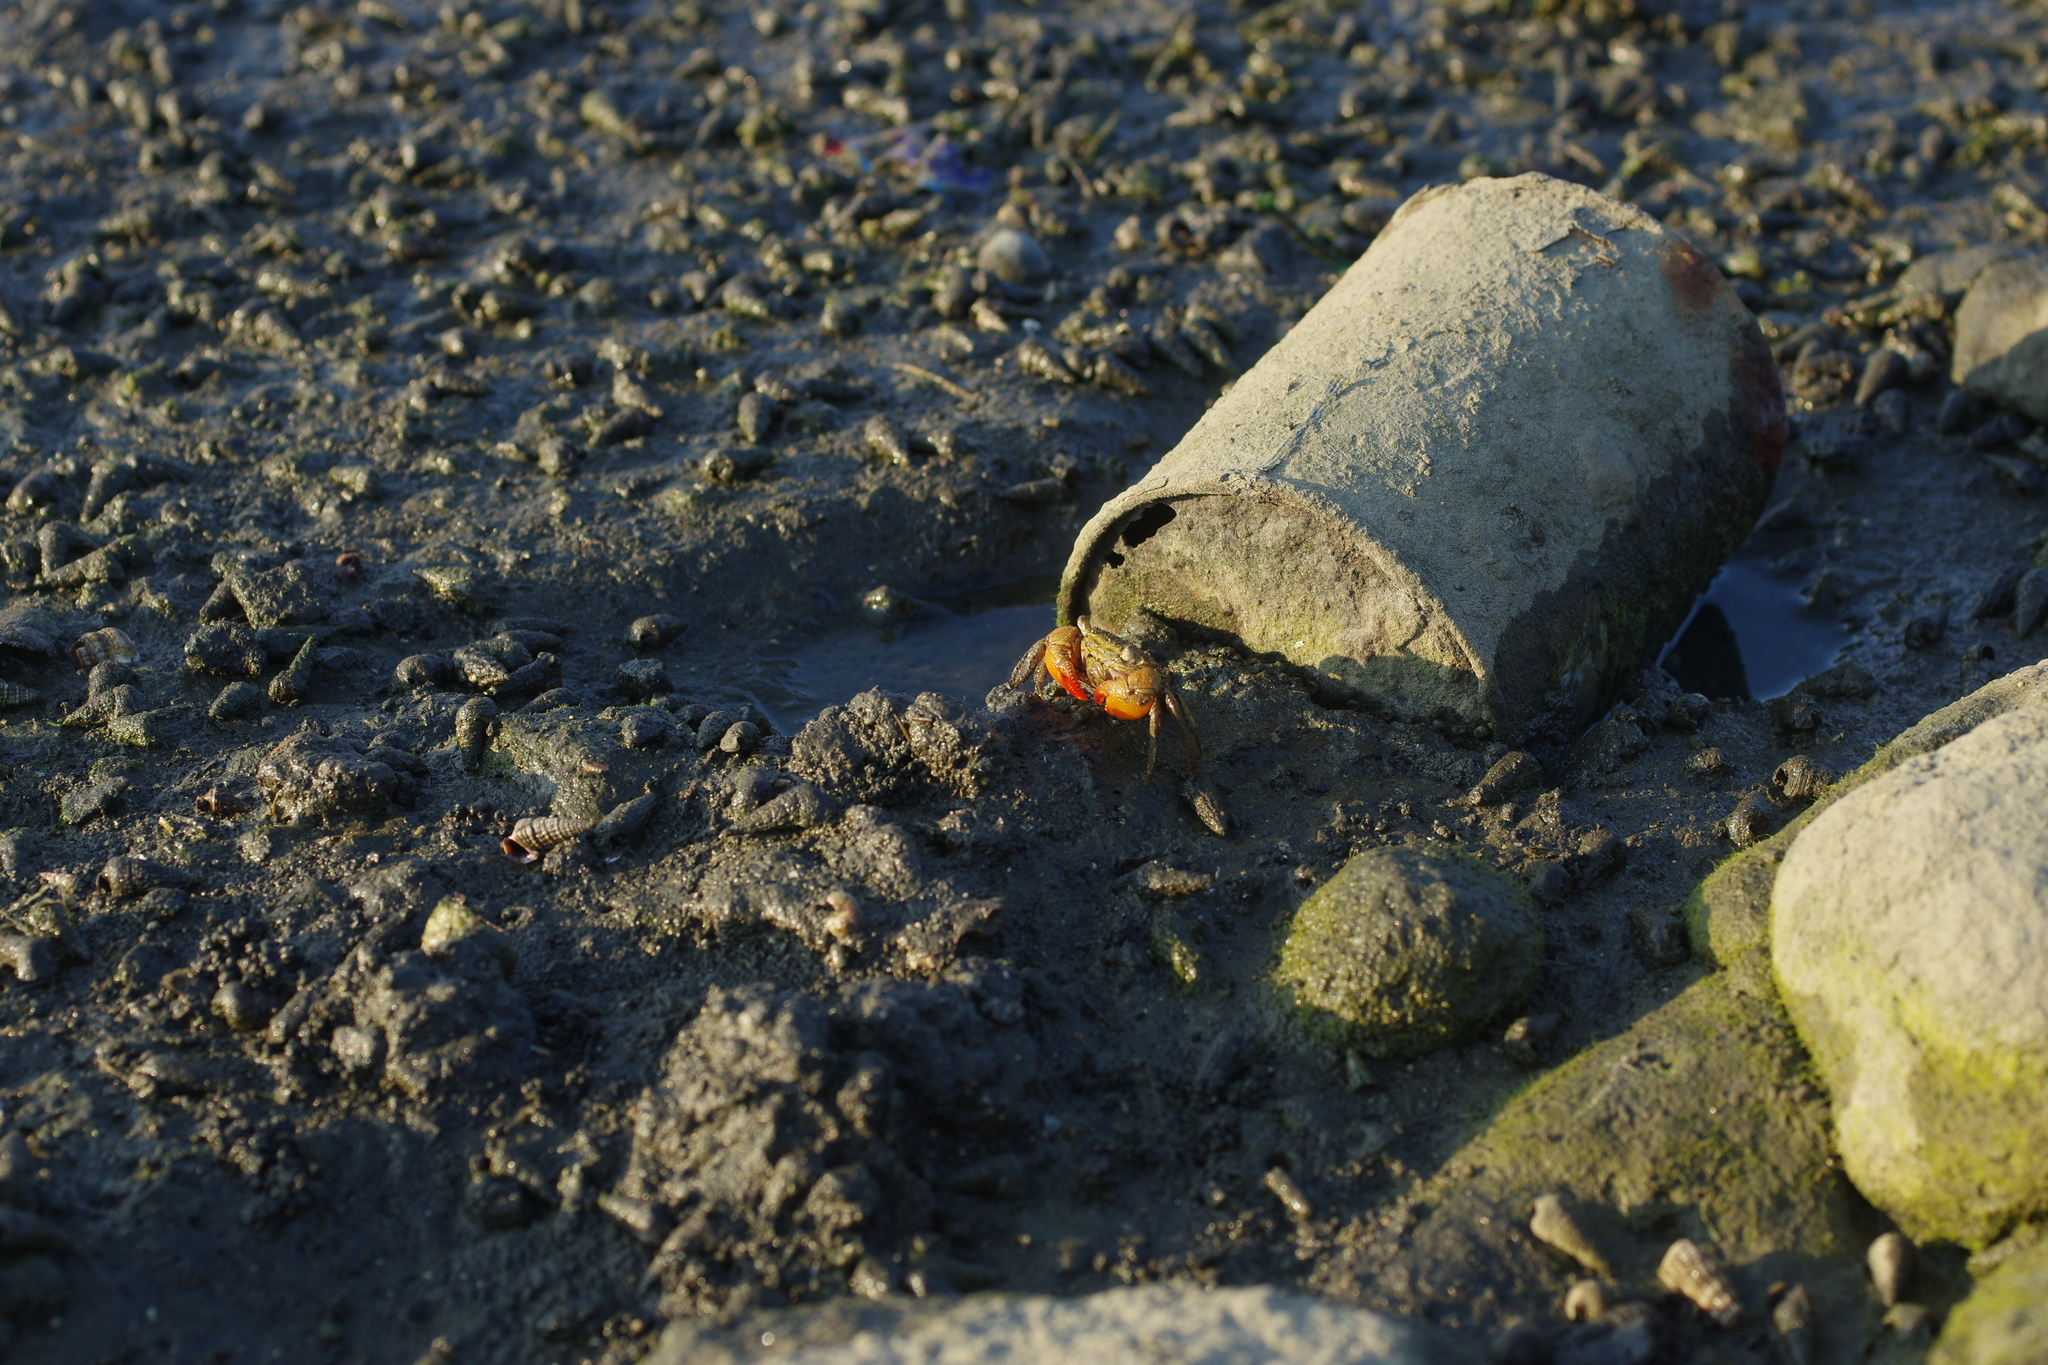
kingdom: Animalia
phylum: Arthropoda
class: Malacostraca
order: Decapoda
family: Sesarmidae
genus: Parasesarma
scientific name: Parasesarma bidens
